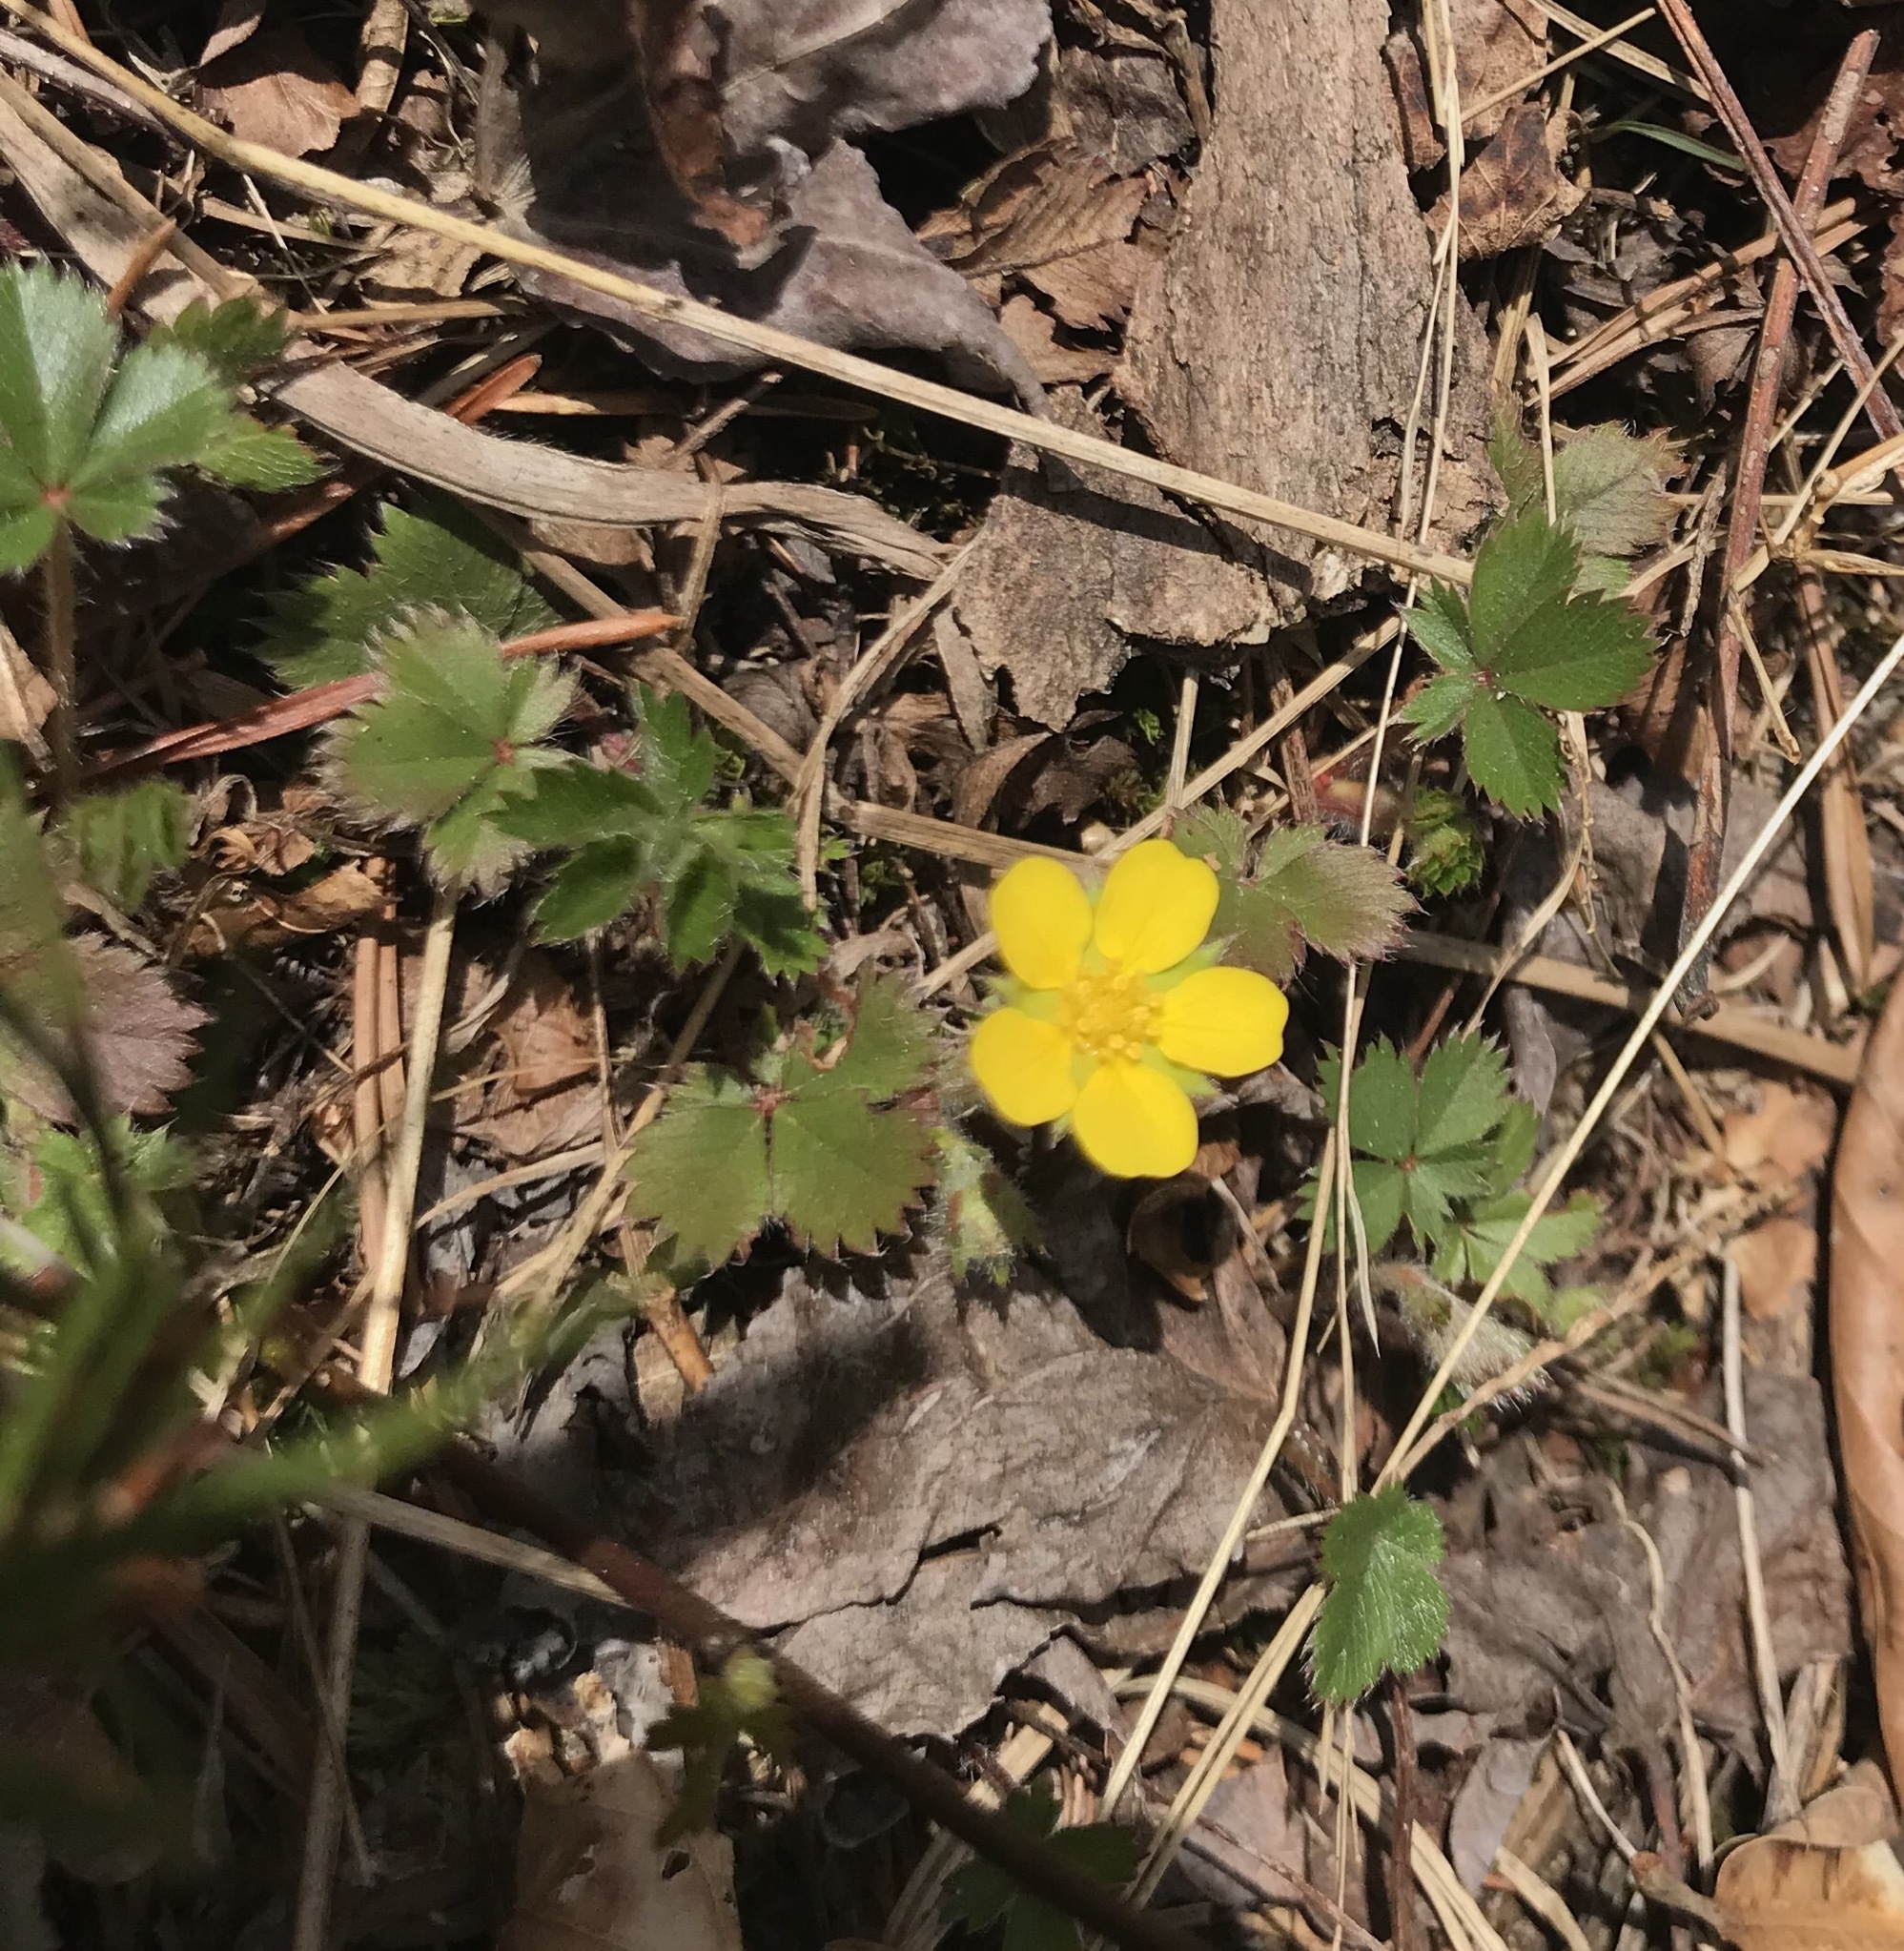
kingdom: Plantae
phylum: Tracheophyta
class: Magnoliopsida
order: Rosales
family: Rosaceae
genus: Potentilla
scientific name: Potentilla canadensis
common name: Canada cinquefoil
